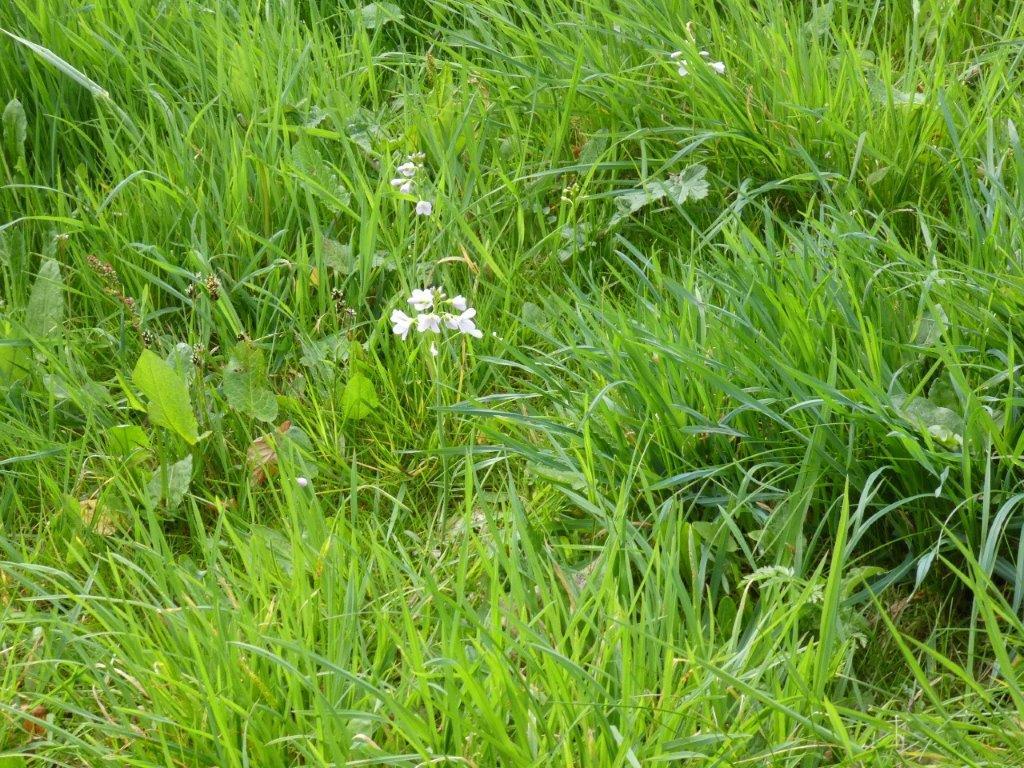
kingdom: Plantae
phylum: Tracheophyta
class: Magnoliopsida
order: Brassicales
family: Brassicaceae
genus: Cardamine
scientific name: Cardamine pratensis
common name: Cuckoo flower
